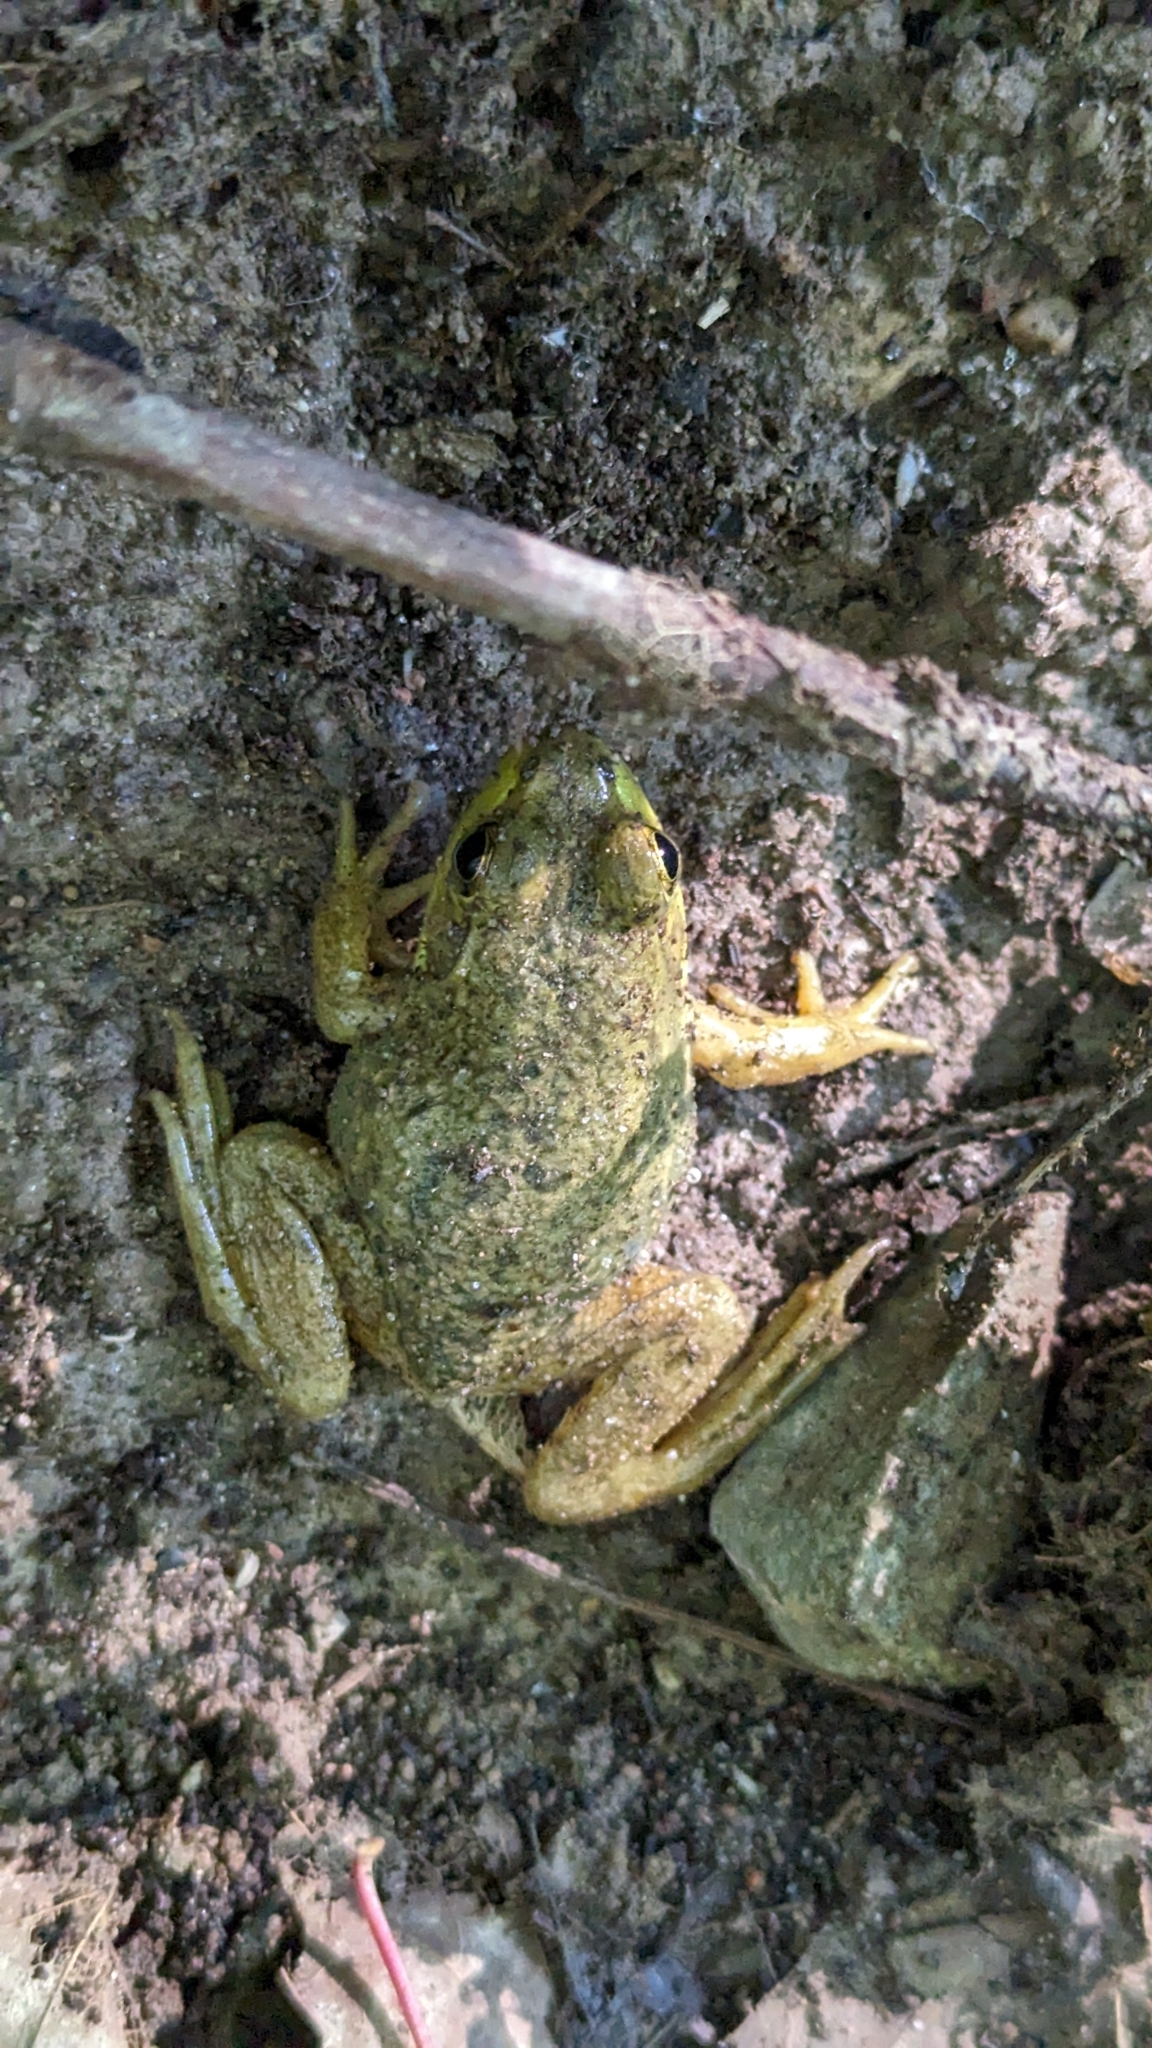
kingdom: Animalia
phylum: Chordata
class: Amphibia
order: Anura
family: Ranidae
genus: Lithobates
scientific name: Lithobates clamitans
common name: Green frog
